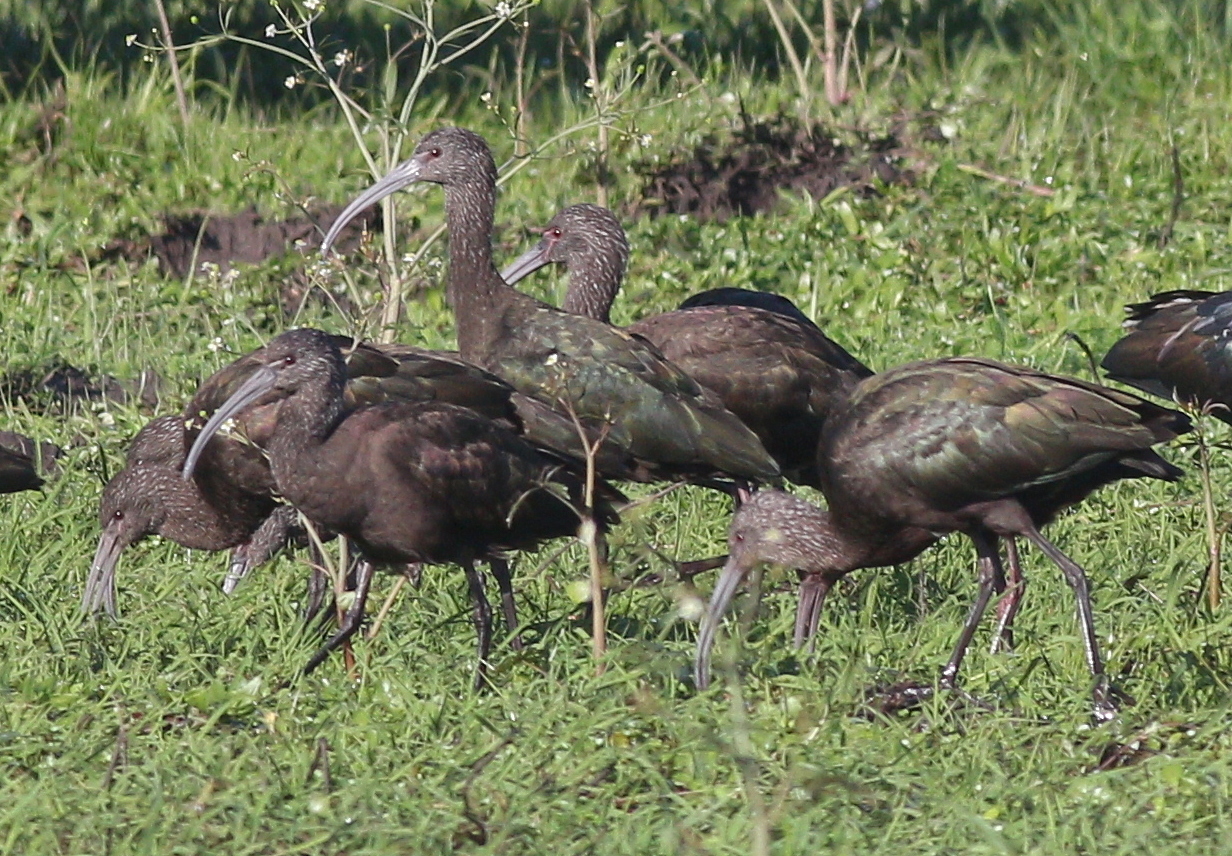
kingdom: Animalia
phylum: Chordata
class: Aves
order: Pelecaniformes
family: Threskiornithidae
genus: Plegadis
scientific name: Plegadis chihi
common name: White-faced ibis
